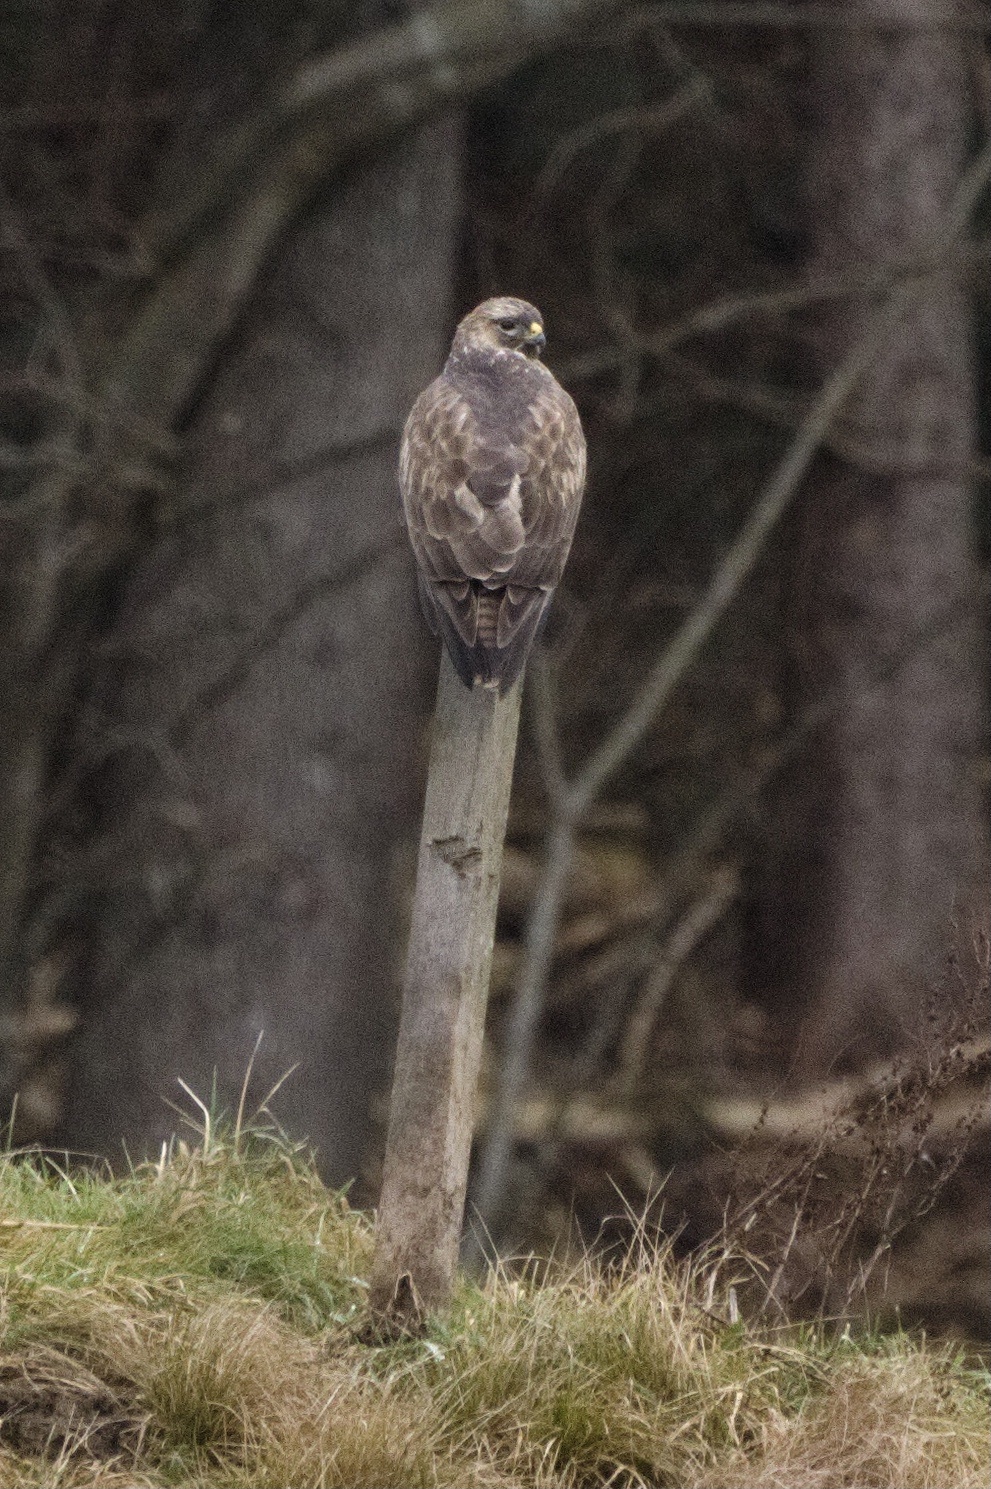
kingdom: Animalia
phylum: Chordata
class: Aves
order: Accipitriformes
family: Accipitridae
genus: Buteo
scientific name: Buteo buteo
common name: Common buzzard
